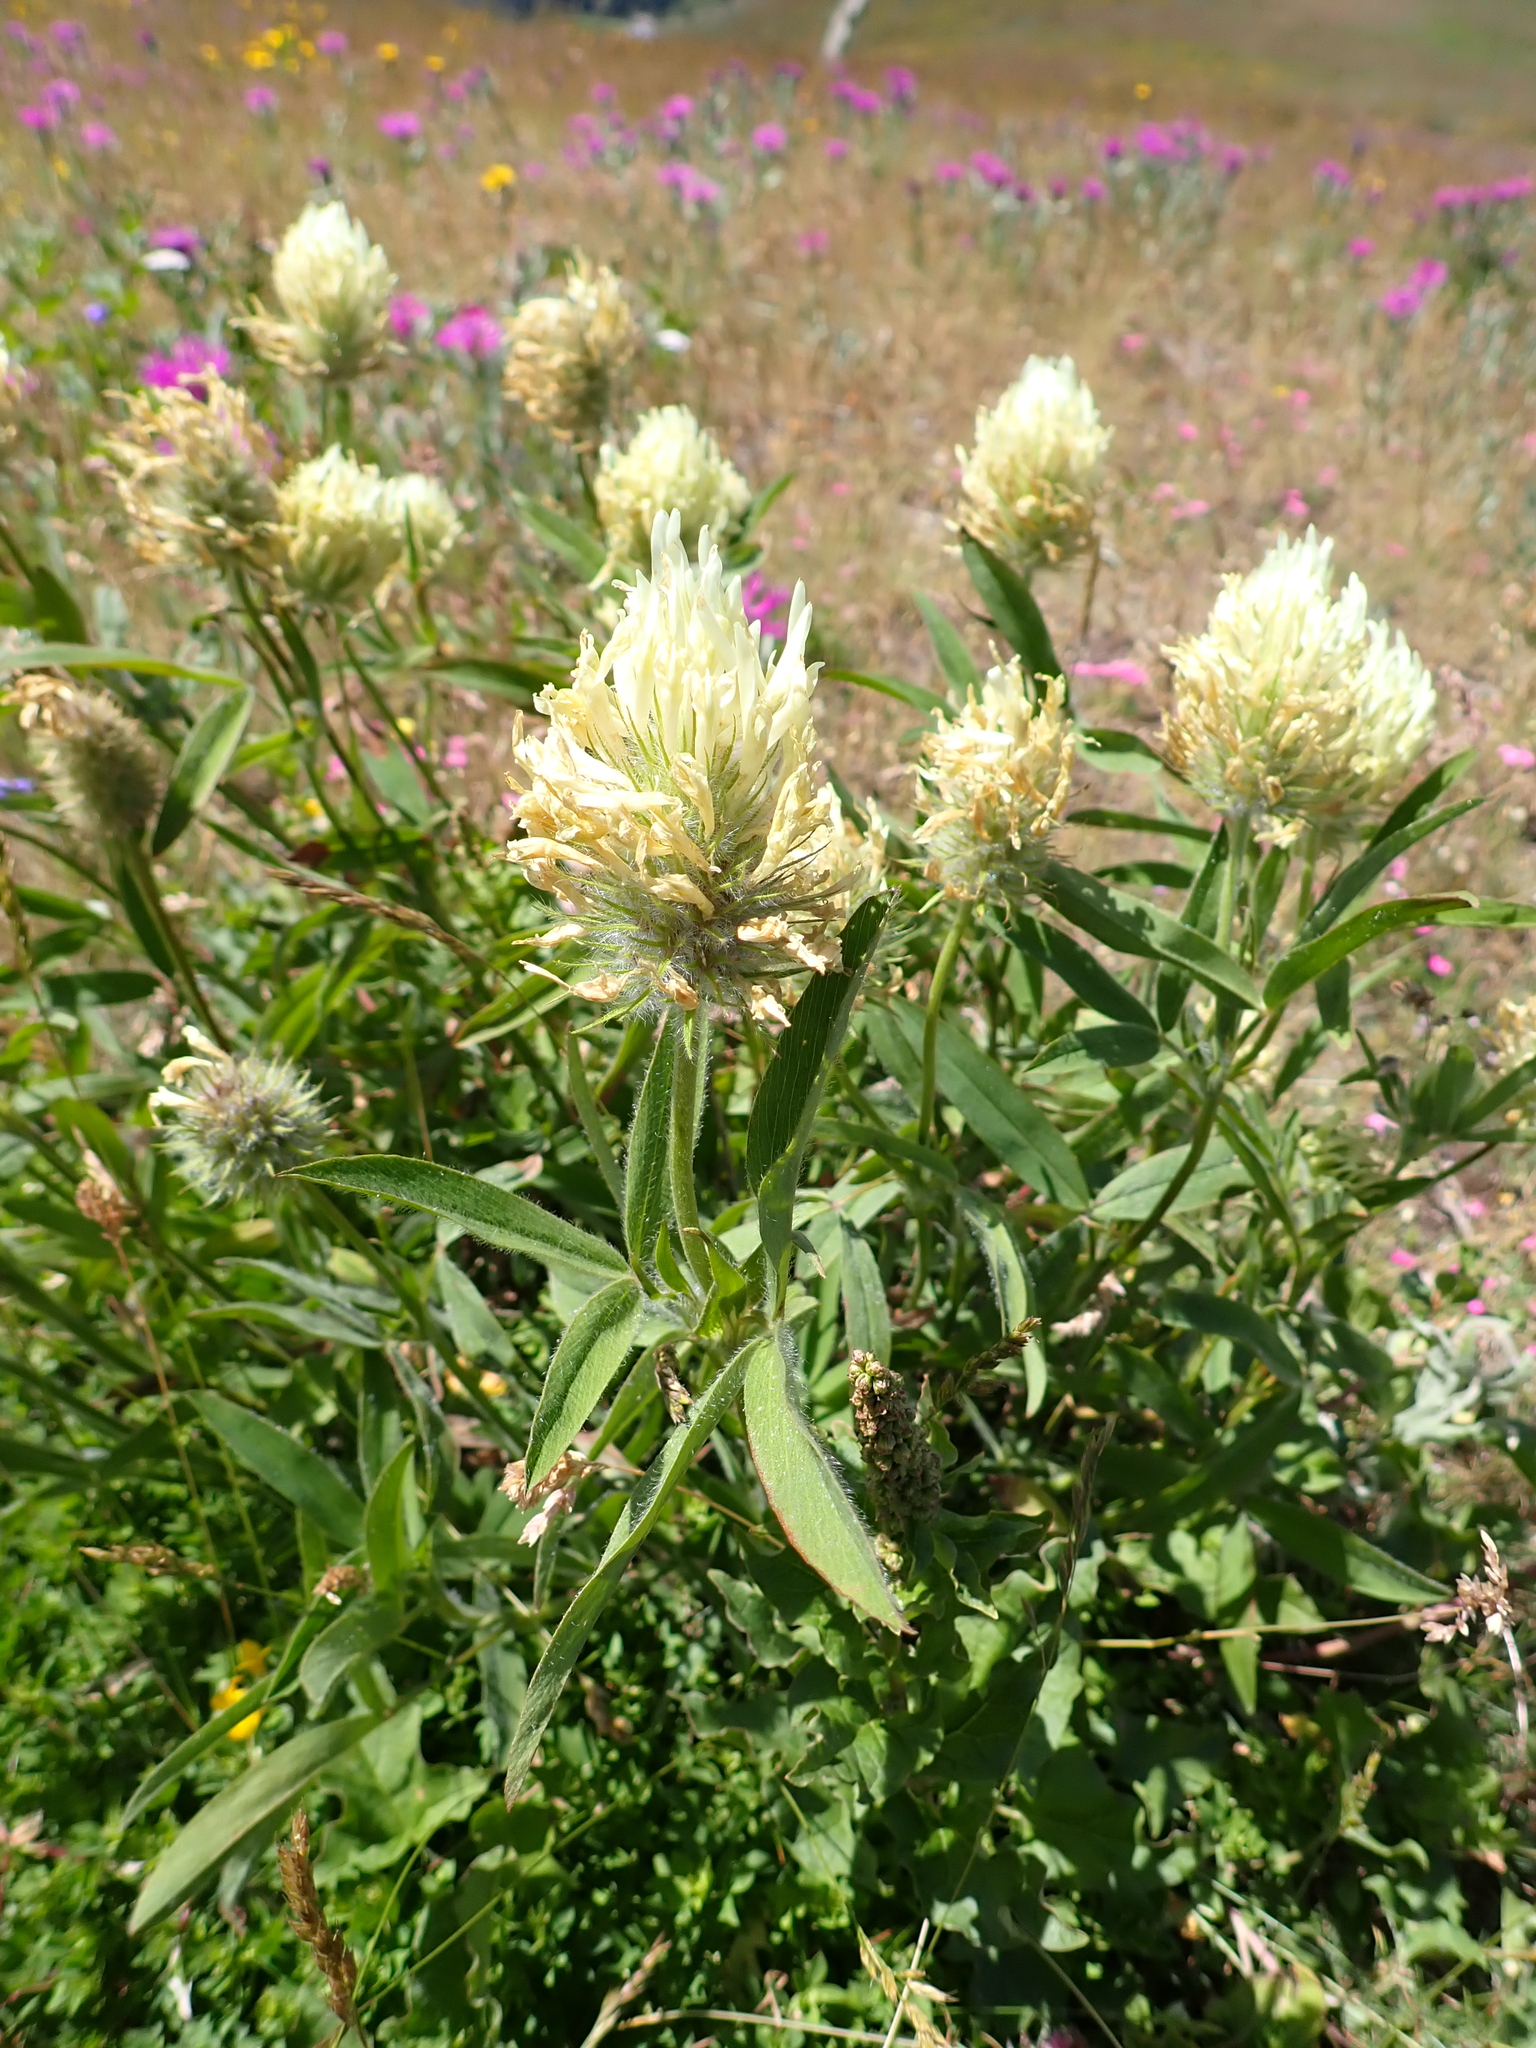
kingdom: Plantae
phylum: Tracheophyta
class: Magnoliopsida
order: Fabales
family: Fabaceae
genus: Trifolium
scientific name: Trifolium ochroleucon
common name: Sulphur clover
